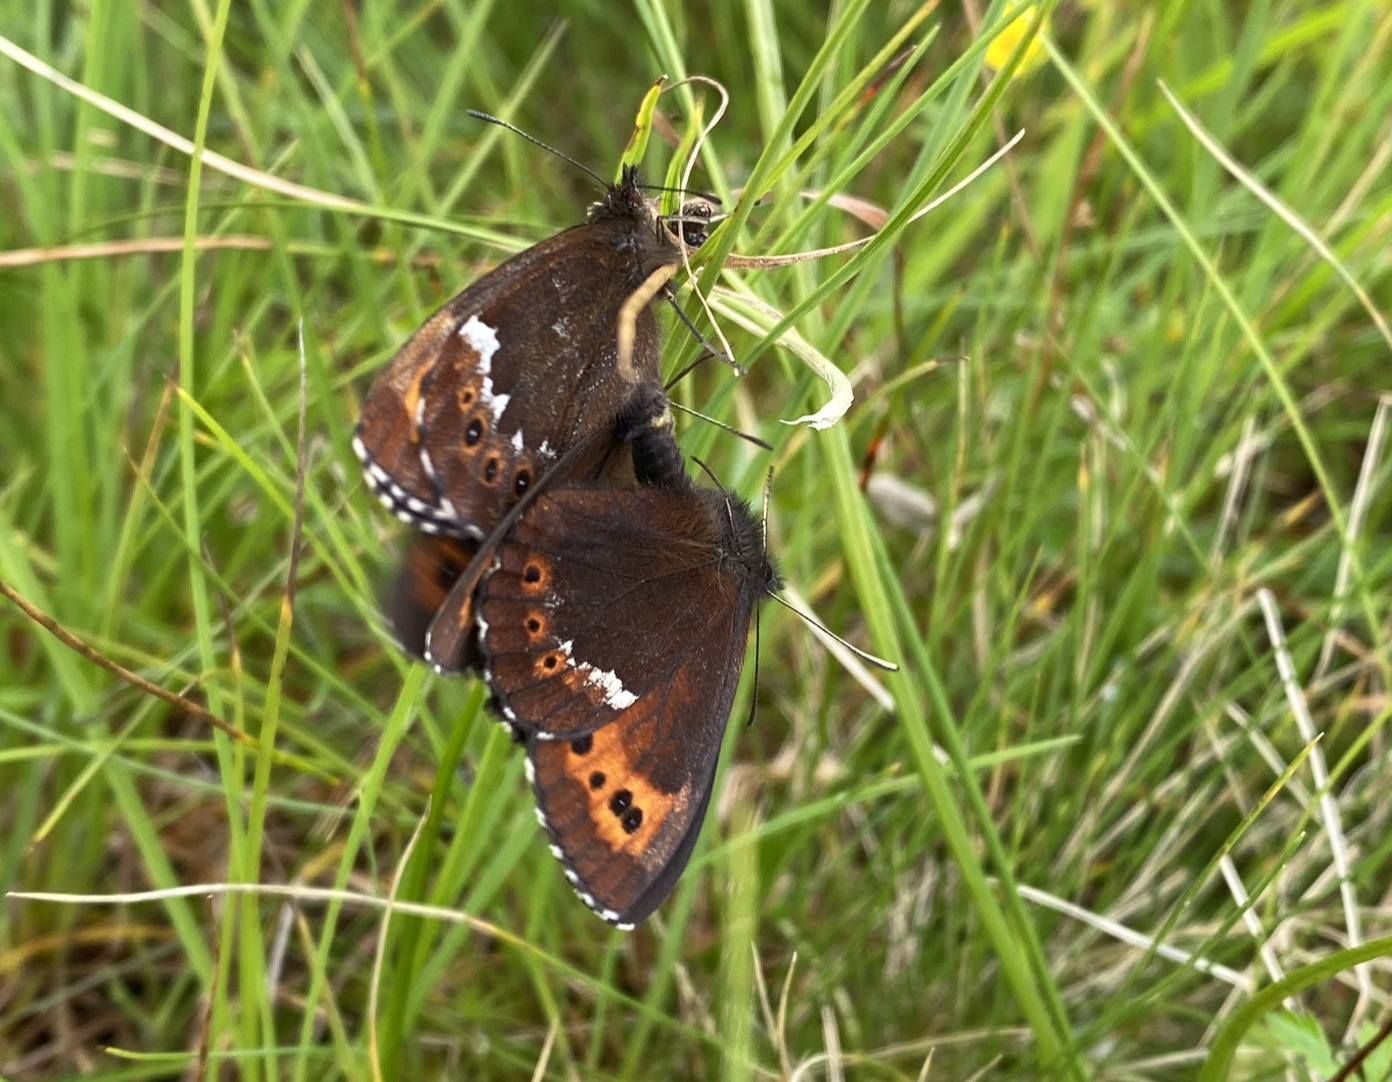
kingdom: Animalia
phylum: Arthropoda
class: Insecta
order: Lepidoptera
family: Nymphalidae
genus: Erebia
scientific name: Erebia ligea
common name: Arran brown
